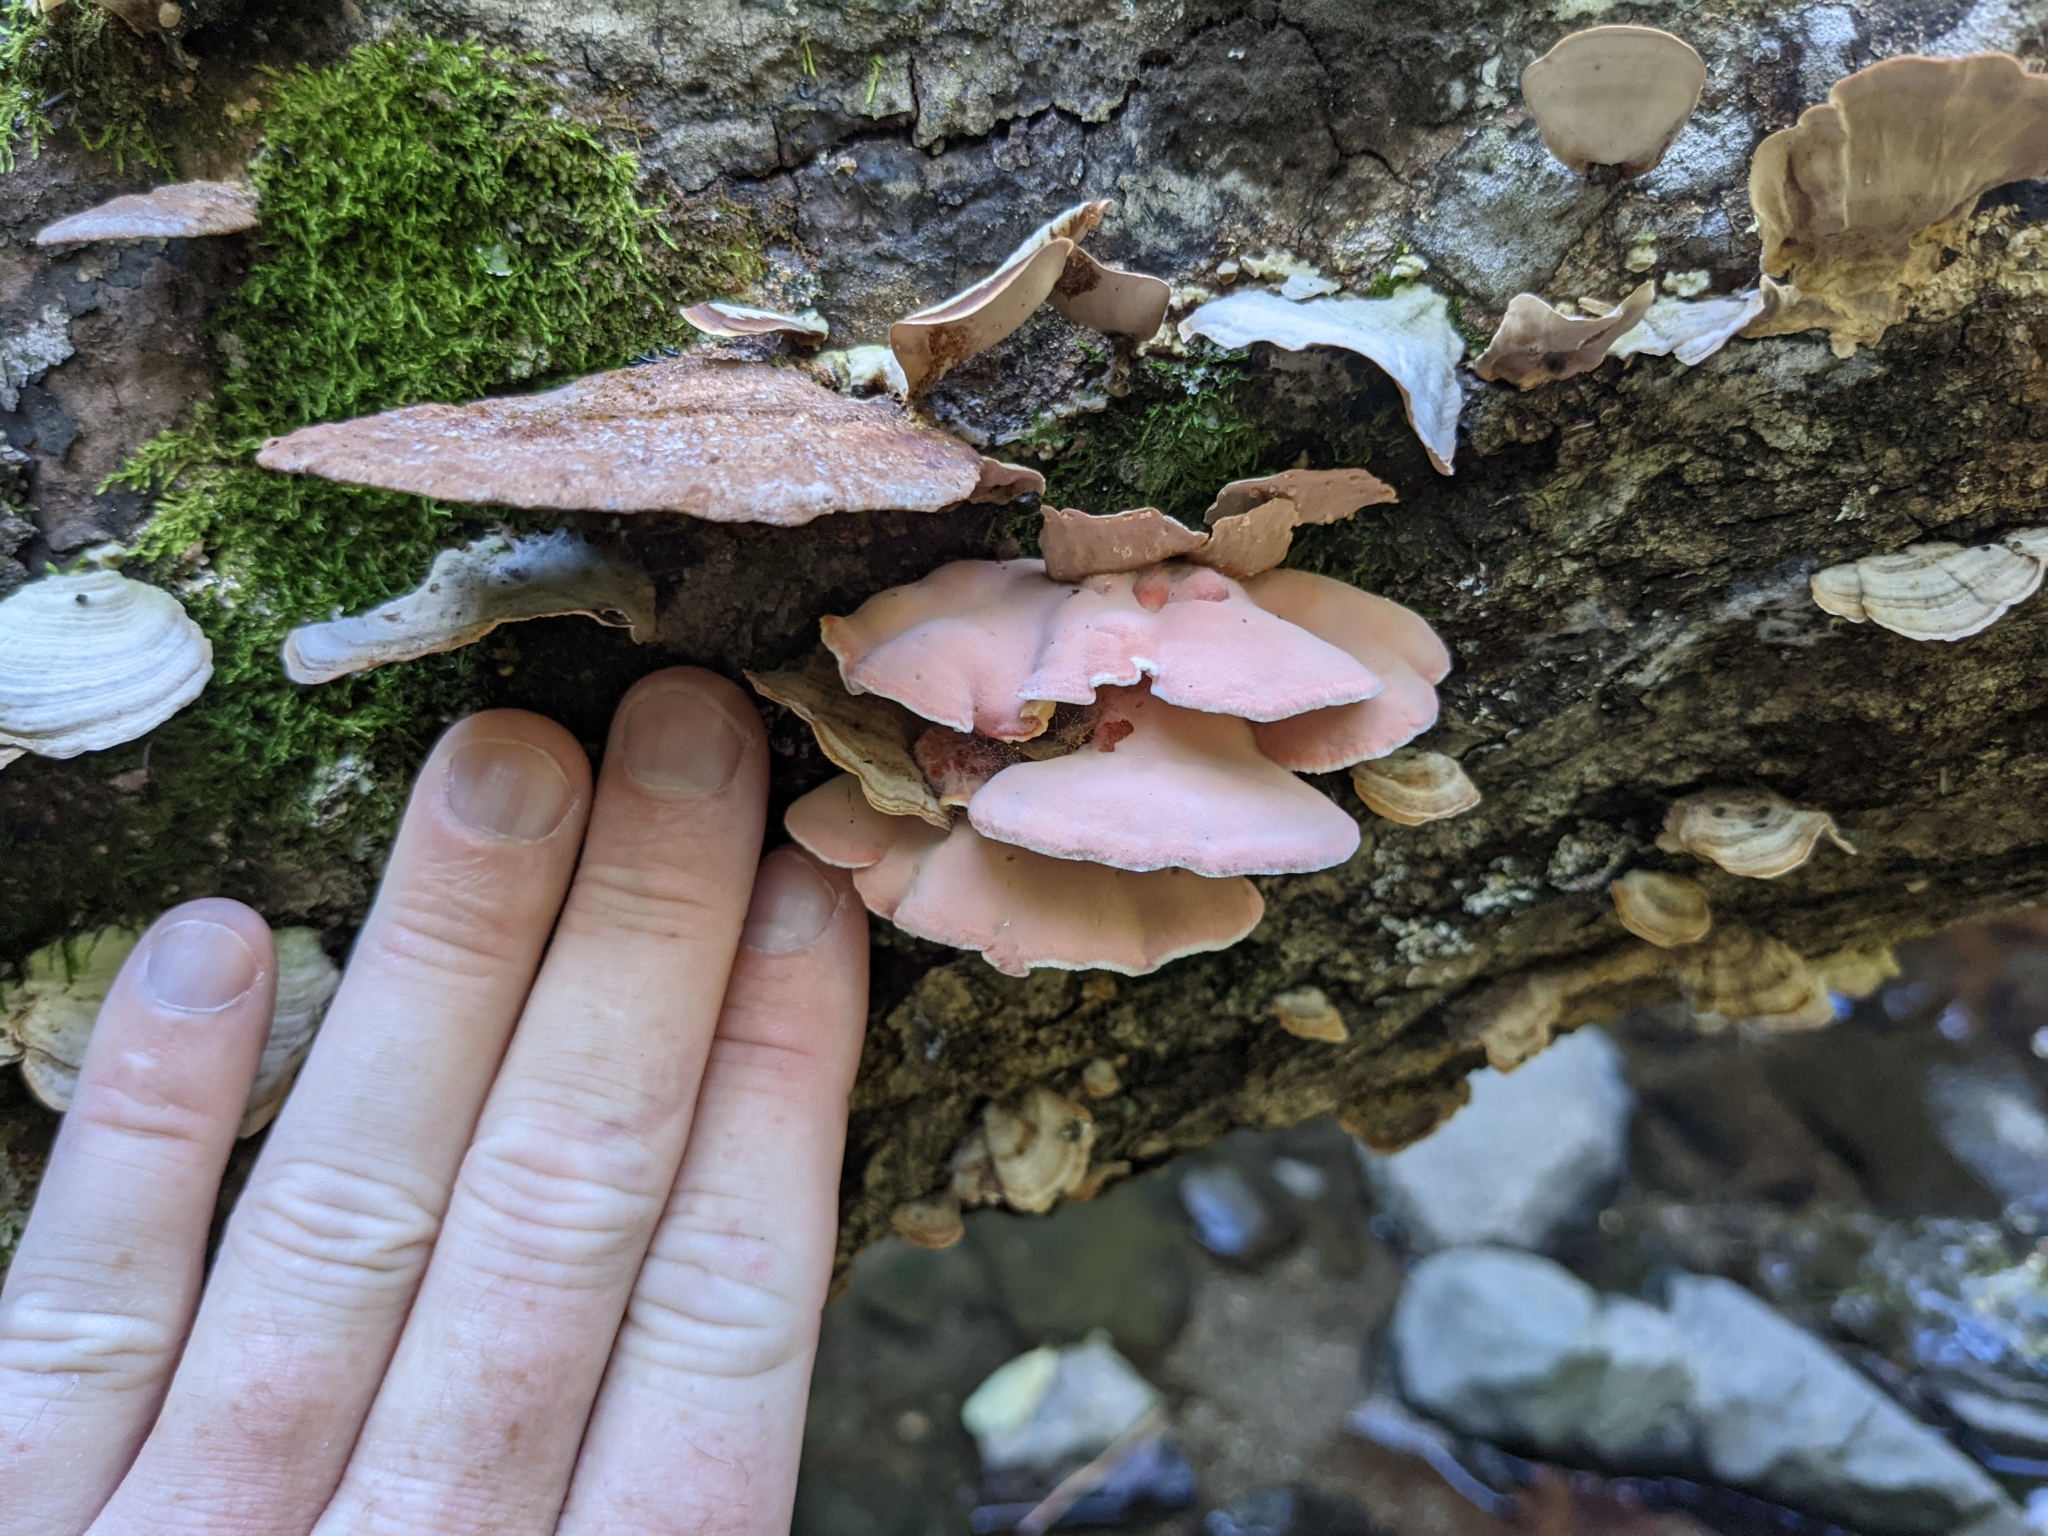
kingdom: Fungi
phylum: Basidiomycota
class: Agaricomycetes
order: Polyporales
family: Irpicaceae
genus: Byssomerulius
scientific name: Byssomerulius incarnatus
